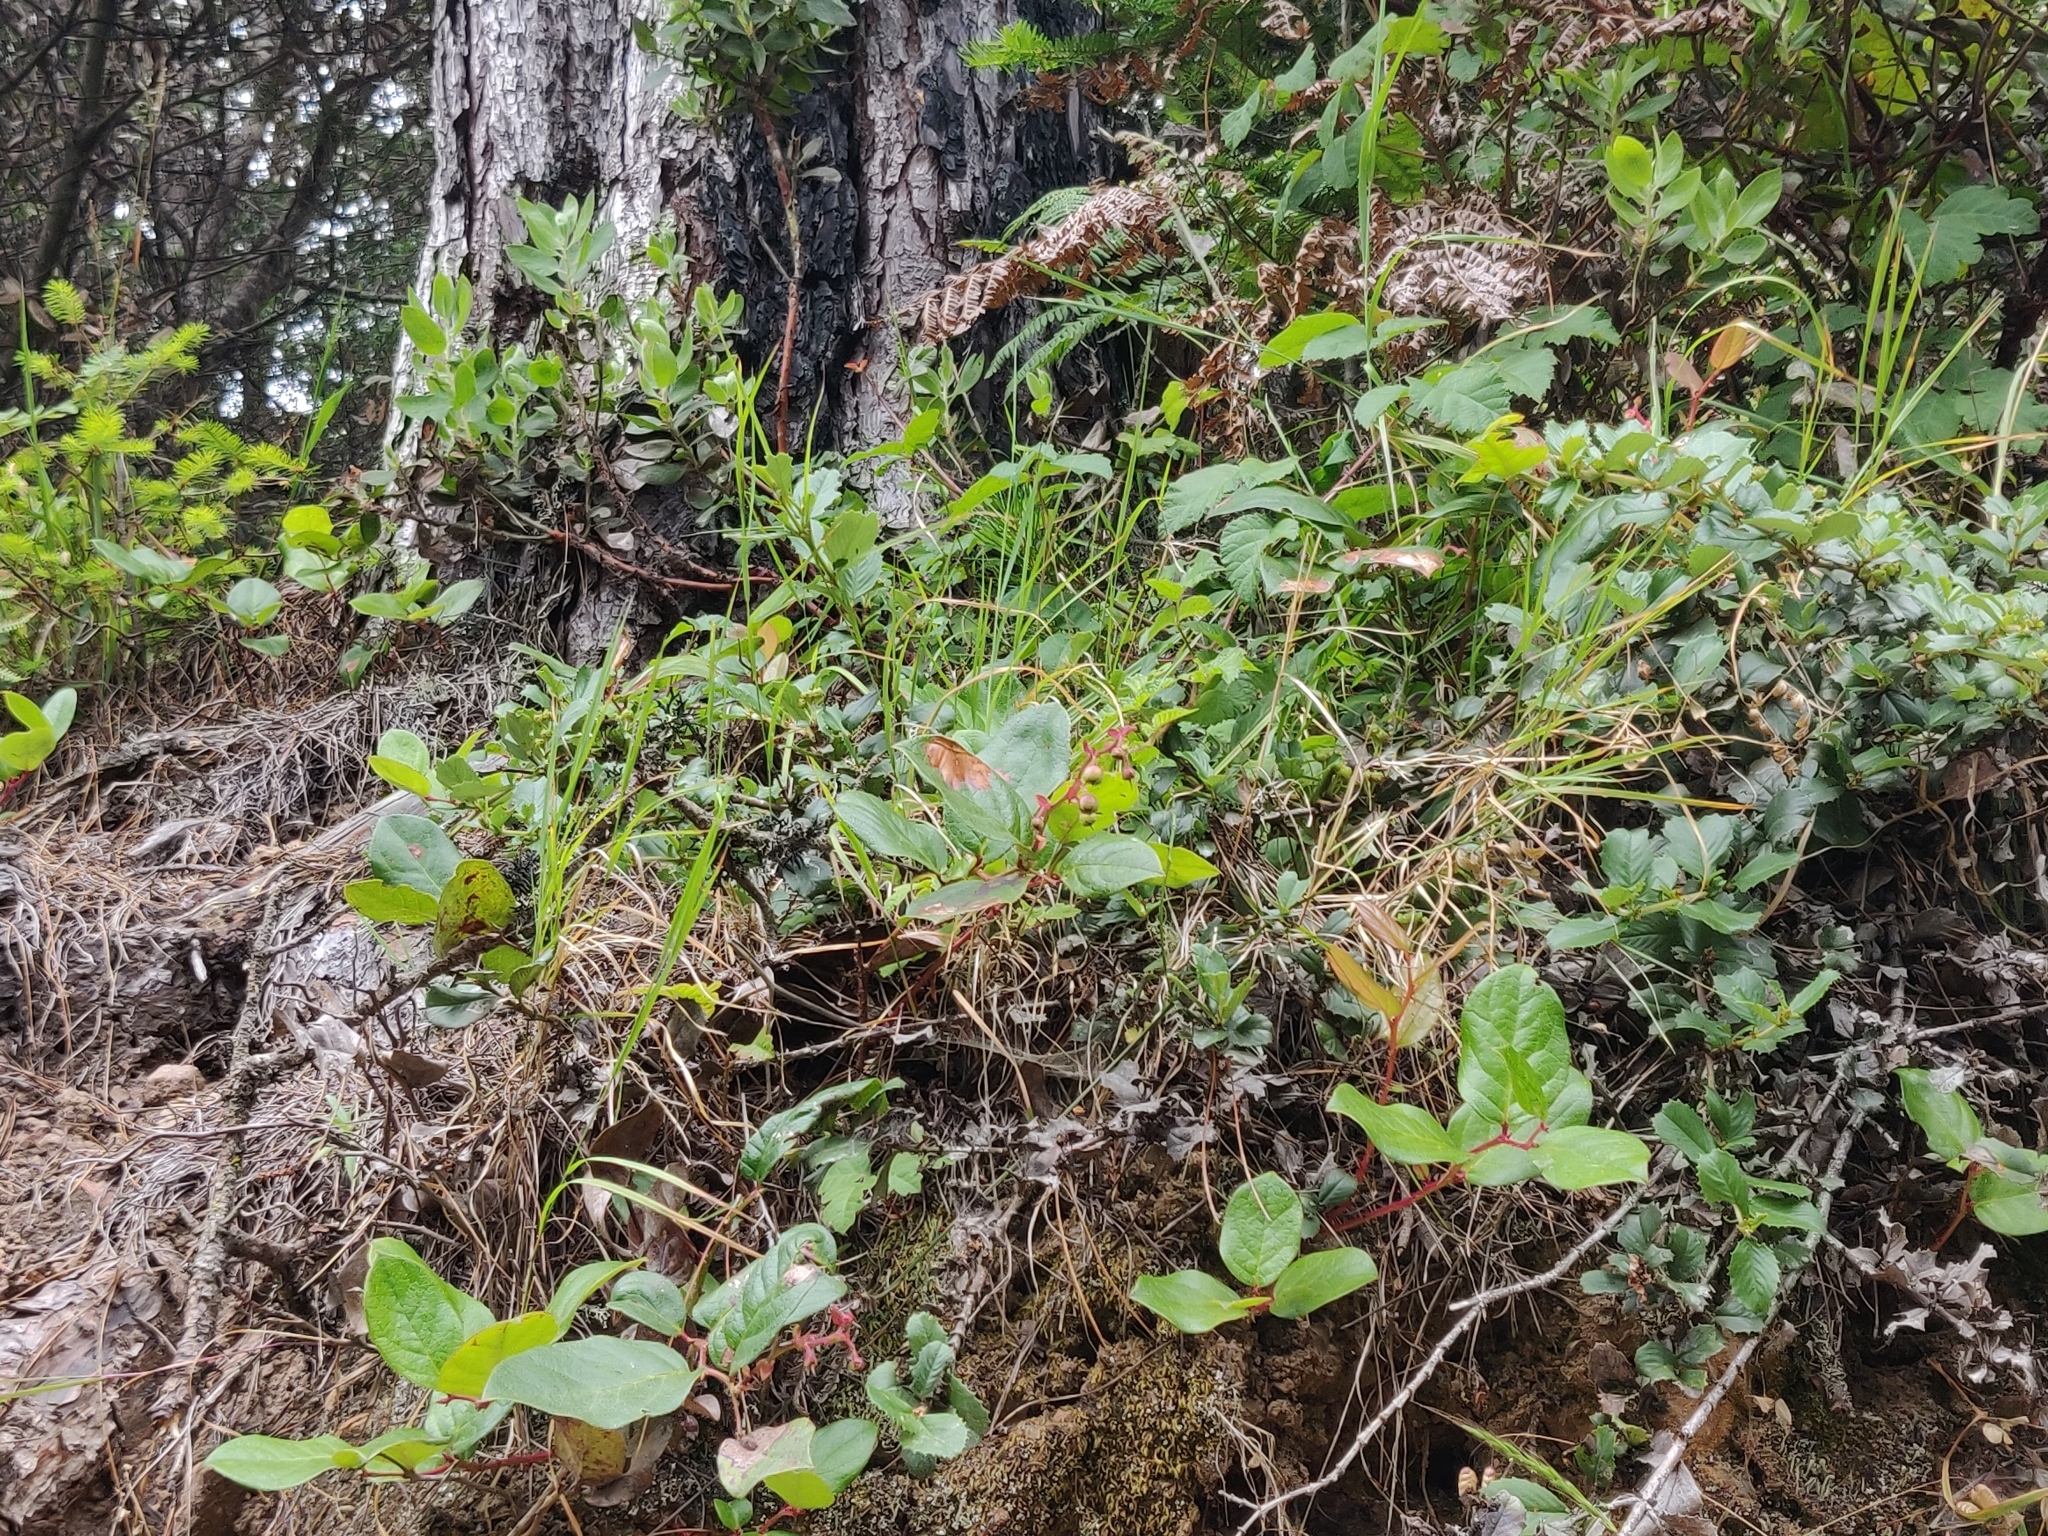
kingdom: Plantae
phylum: Tracheophyta
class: Magnoliopsida
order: Ericales
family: Ericaceae
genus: Gaultheria
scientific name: Gaultheria shallon
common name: Shallon
